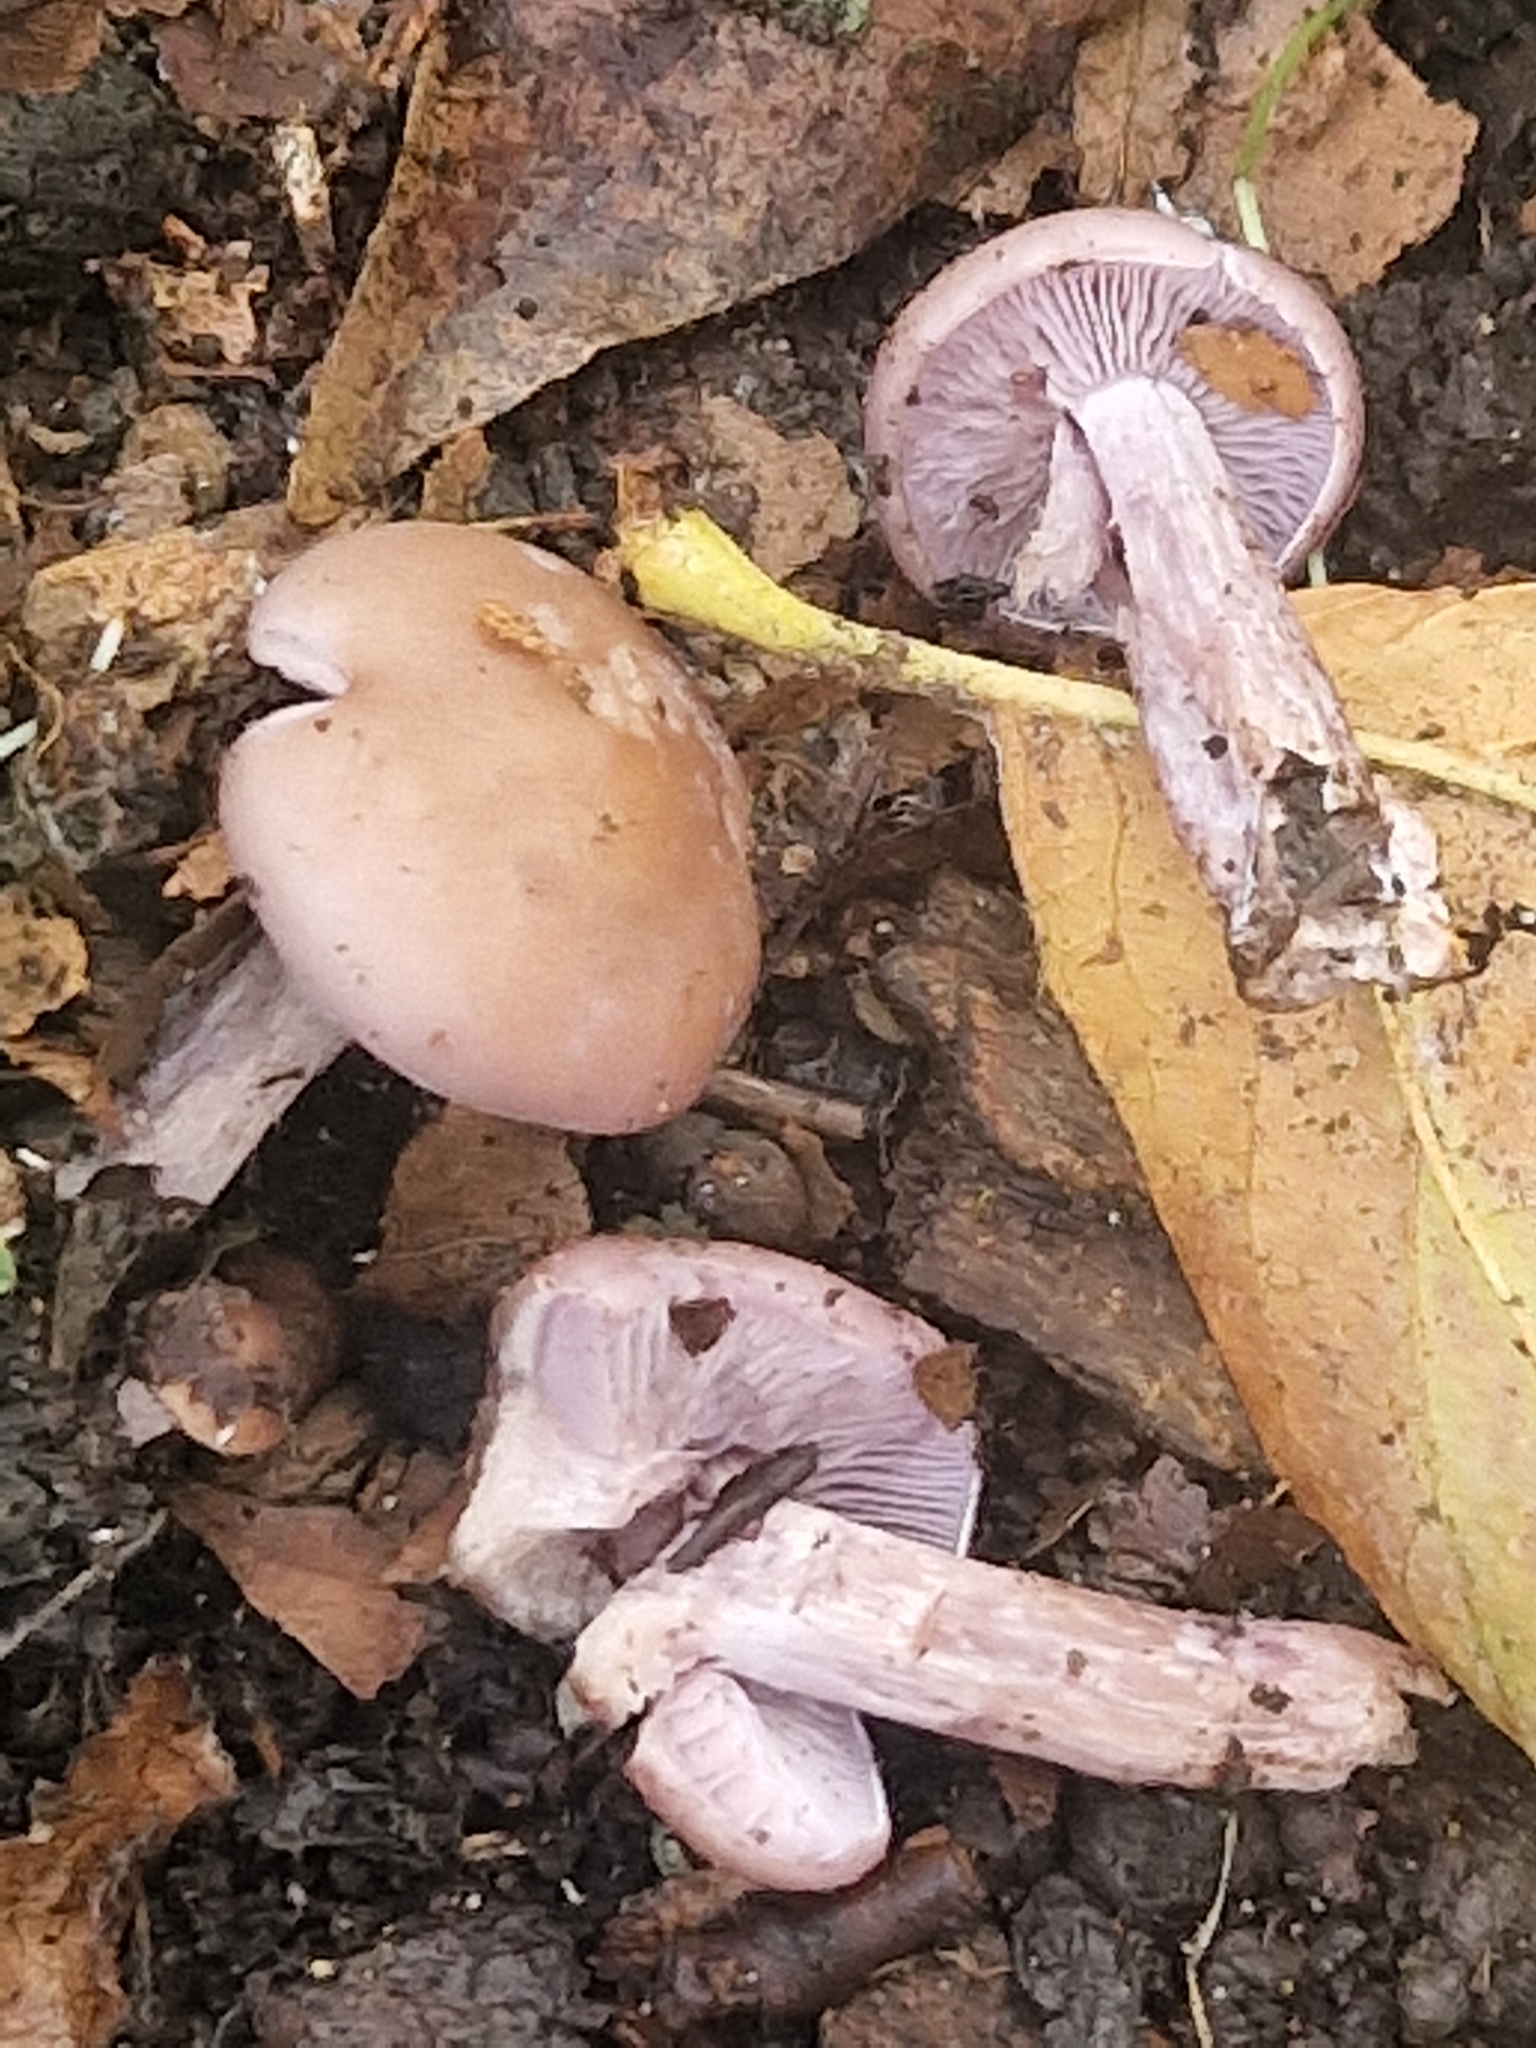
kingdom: Fungi
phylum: Basidiomycota
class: Agaricomycetes
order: Agaricales
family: Tricholomataceae
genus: Collybia
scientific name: Collybia
